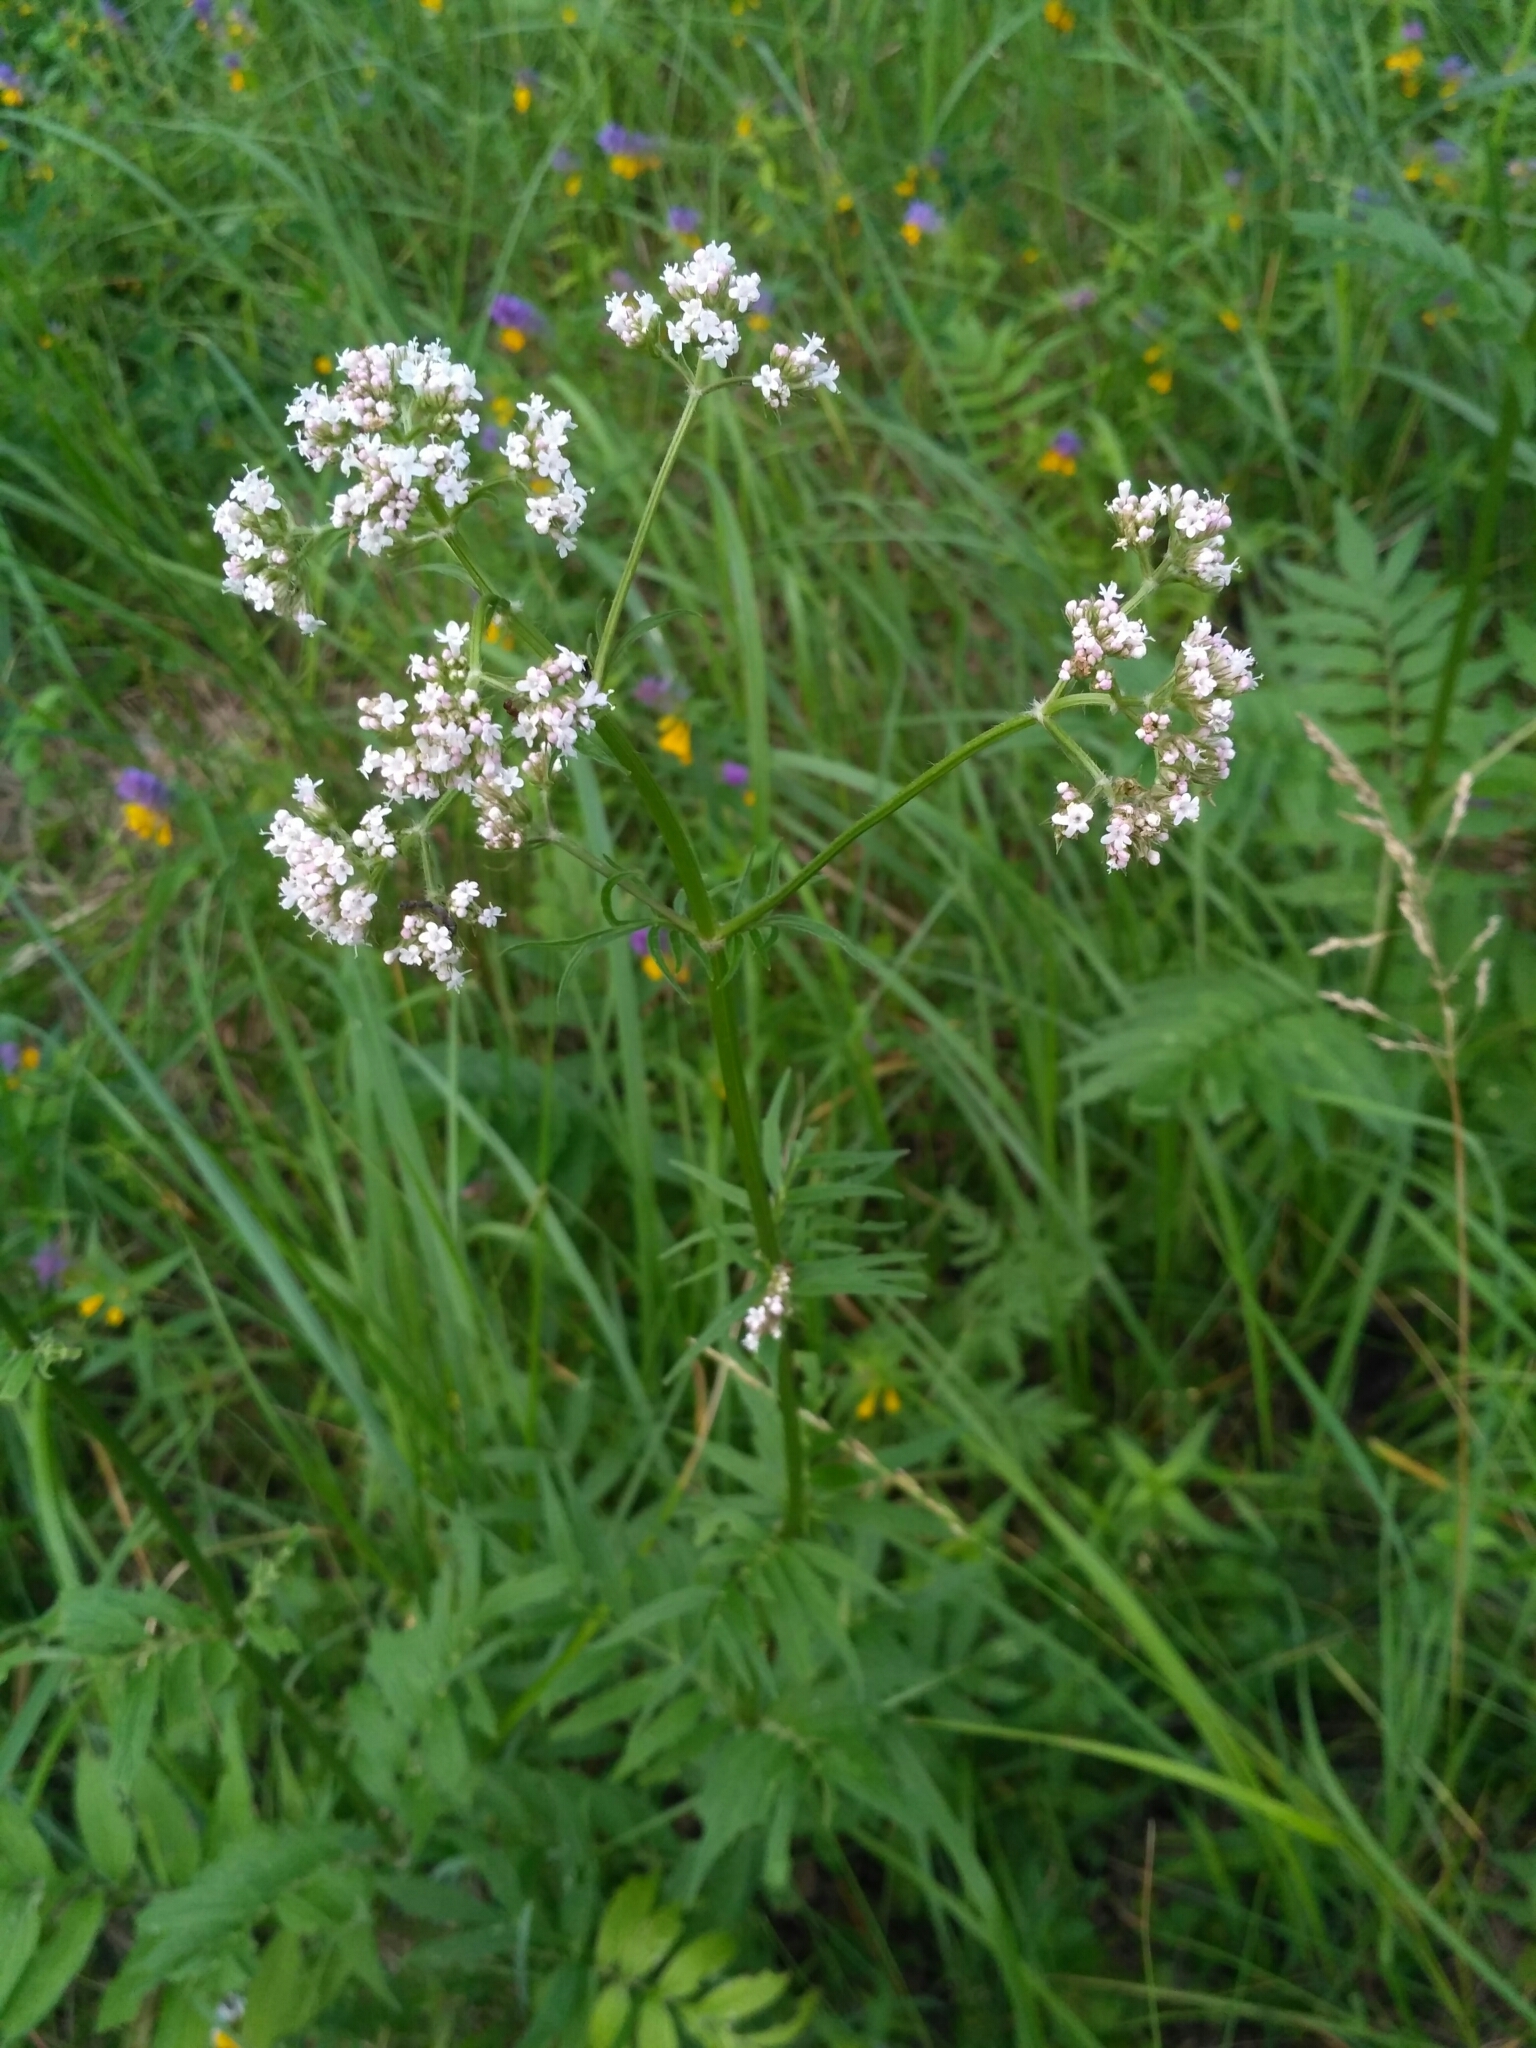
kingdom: Plantae
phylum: Tracheophyta
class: Magnoliopsida
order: Dipsacales
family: Caprifoliaceae
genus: Valeriana
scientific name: Valeriana officinalis
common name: Common valerian
